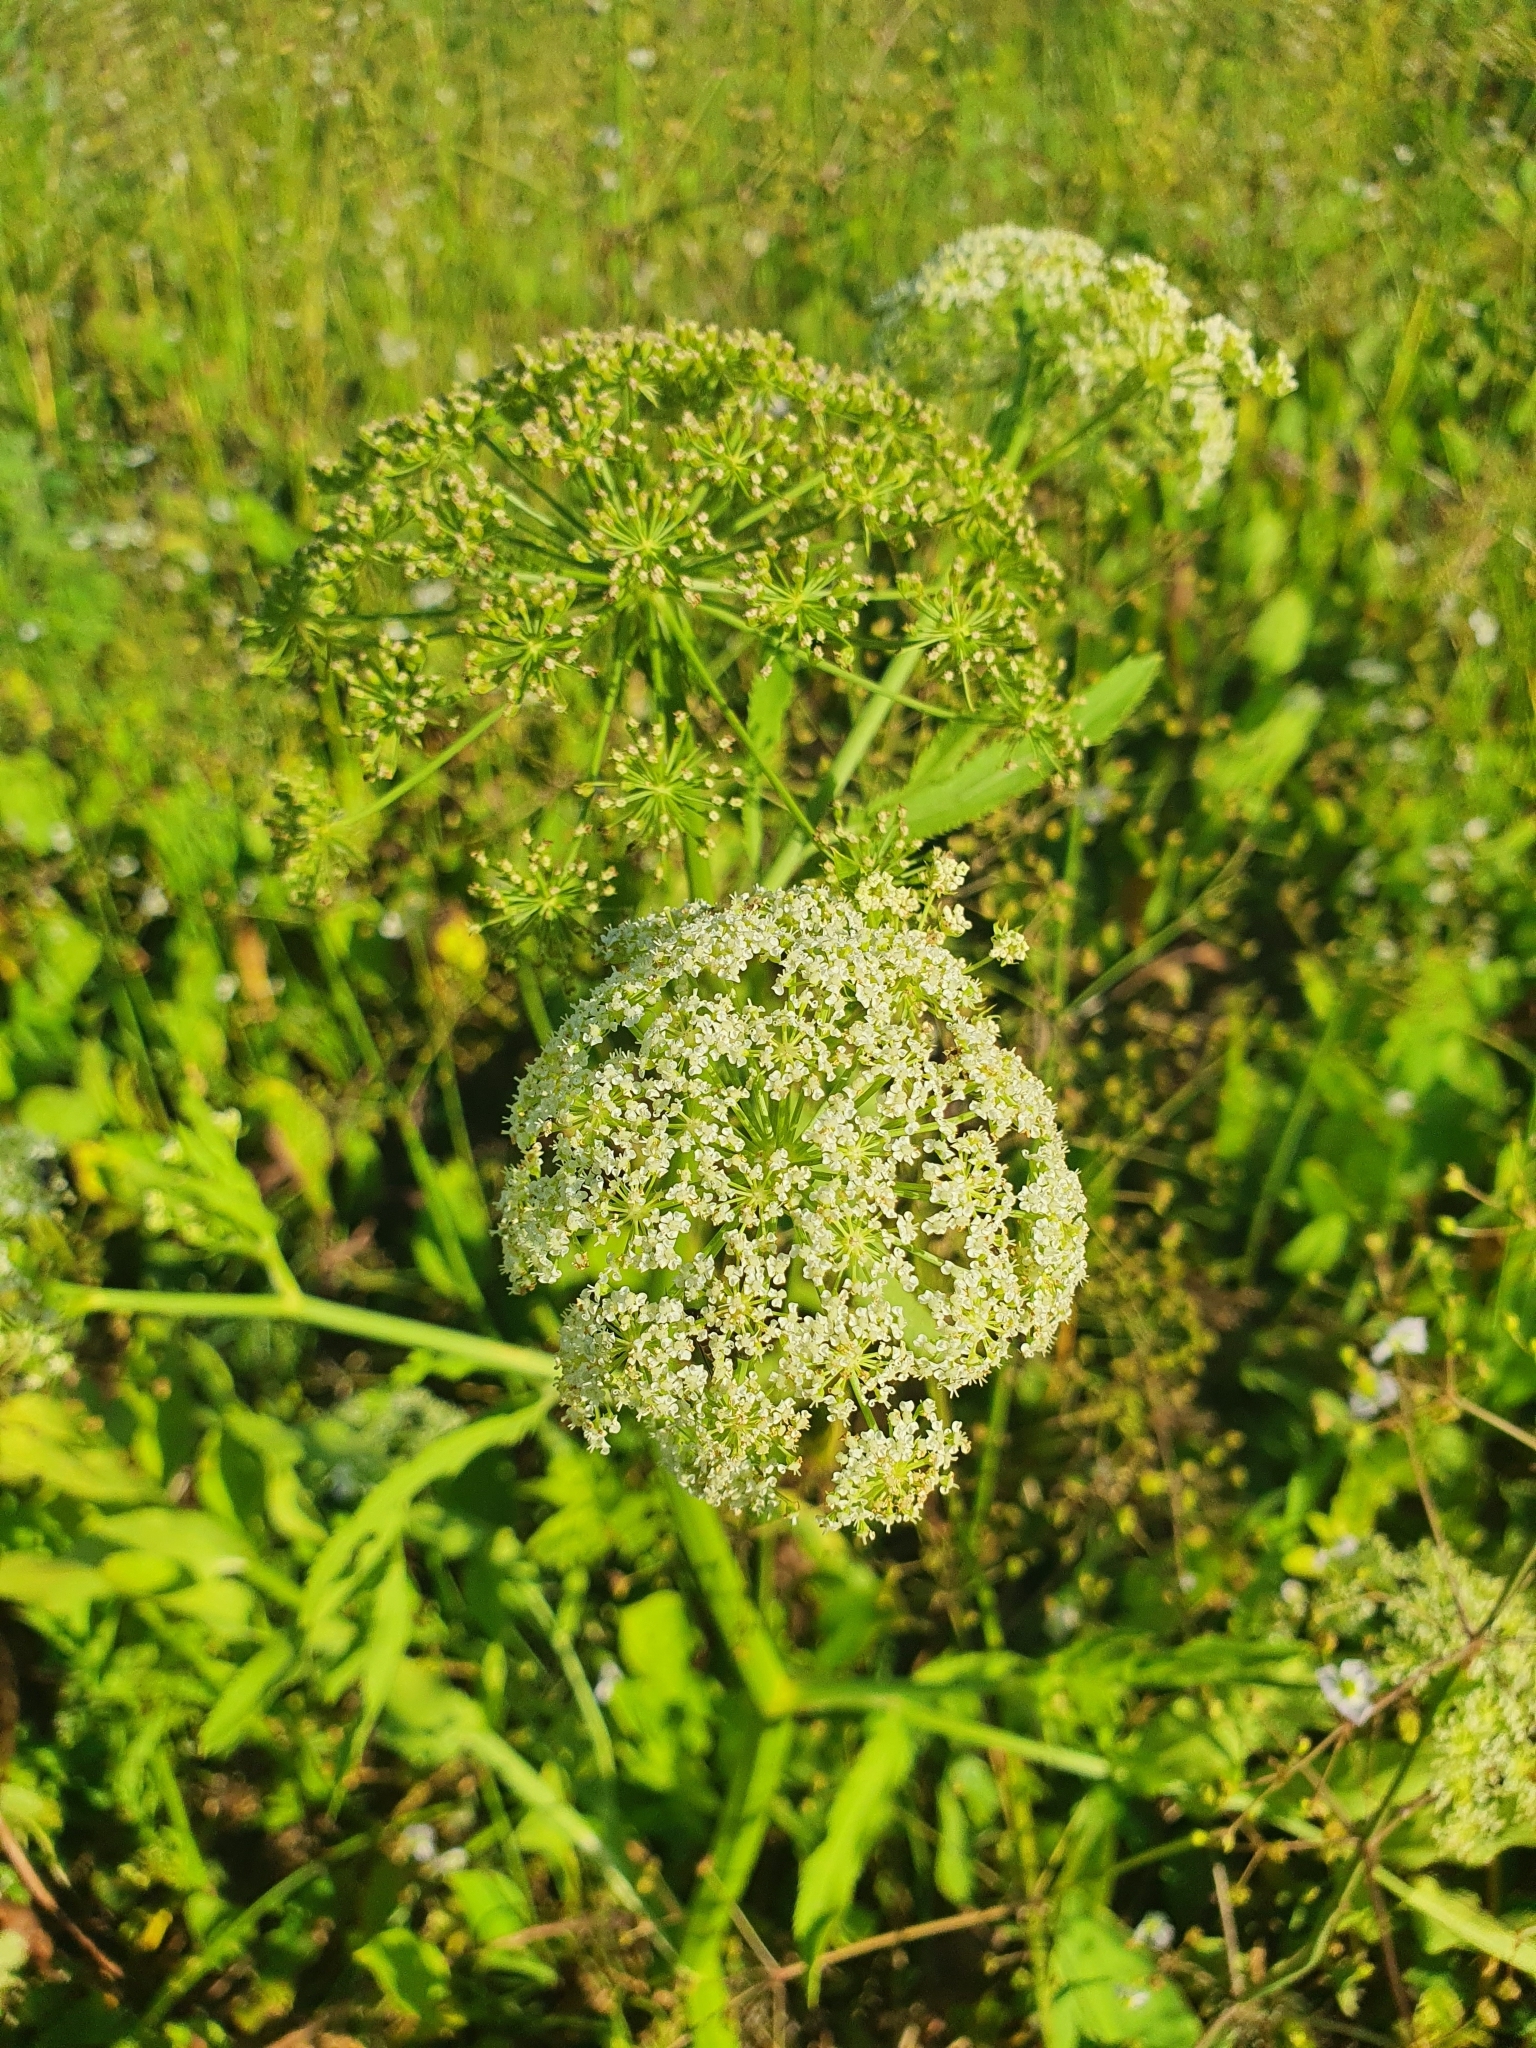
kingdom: Plantae
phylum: Tracheophyta
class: Magnoliopsida
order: Apiales
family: Apiaceae
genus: Sium
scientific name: Sium latifolium
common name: Greater water-parsnip
